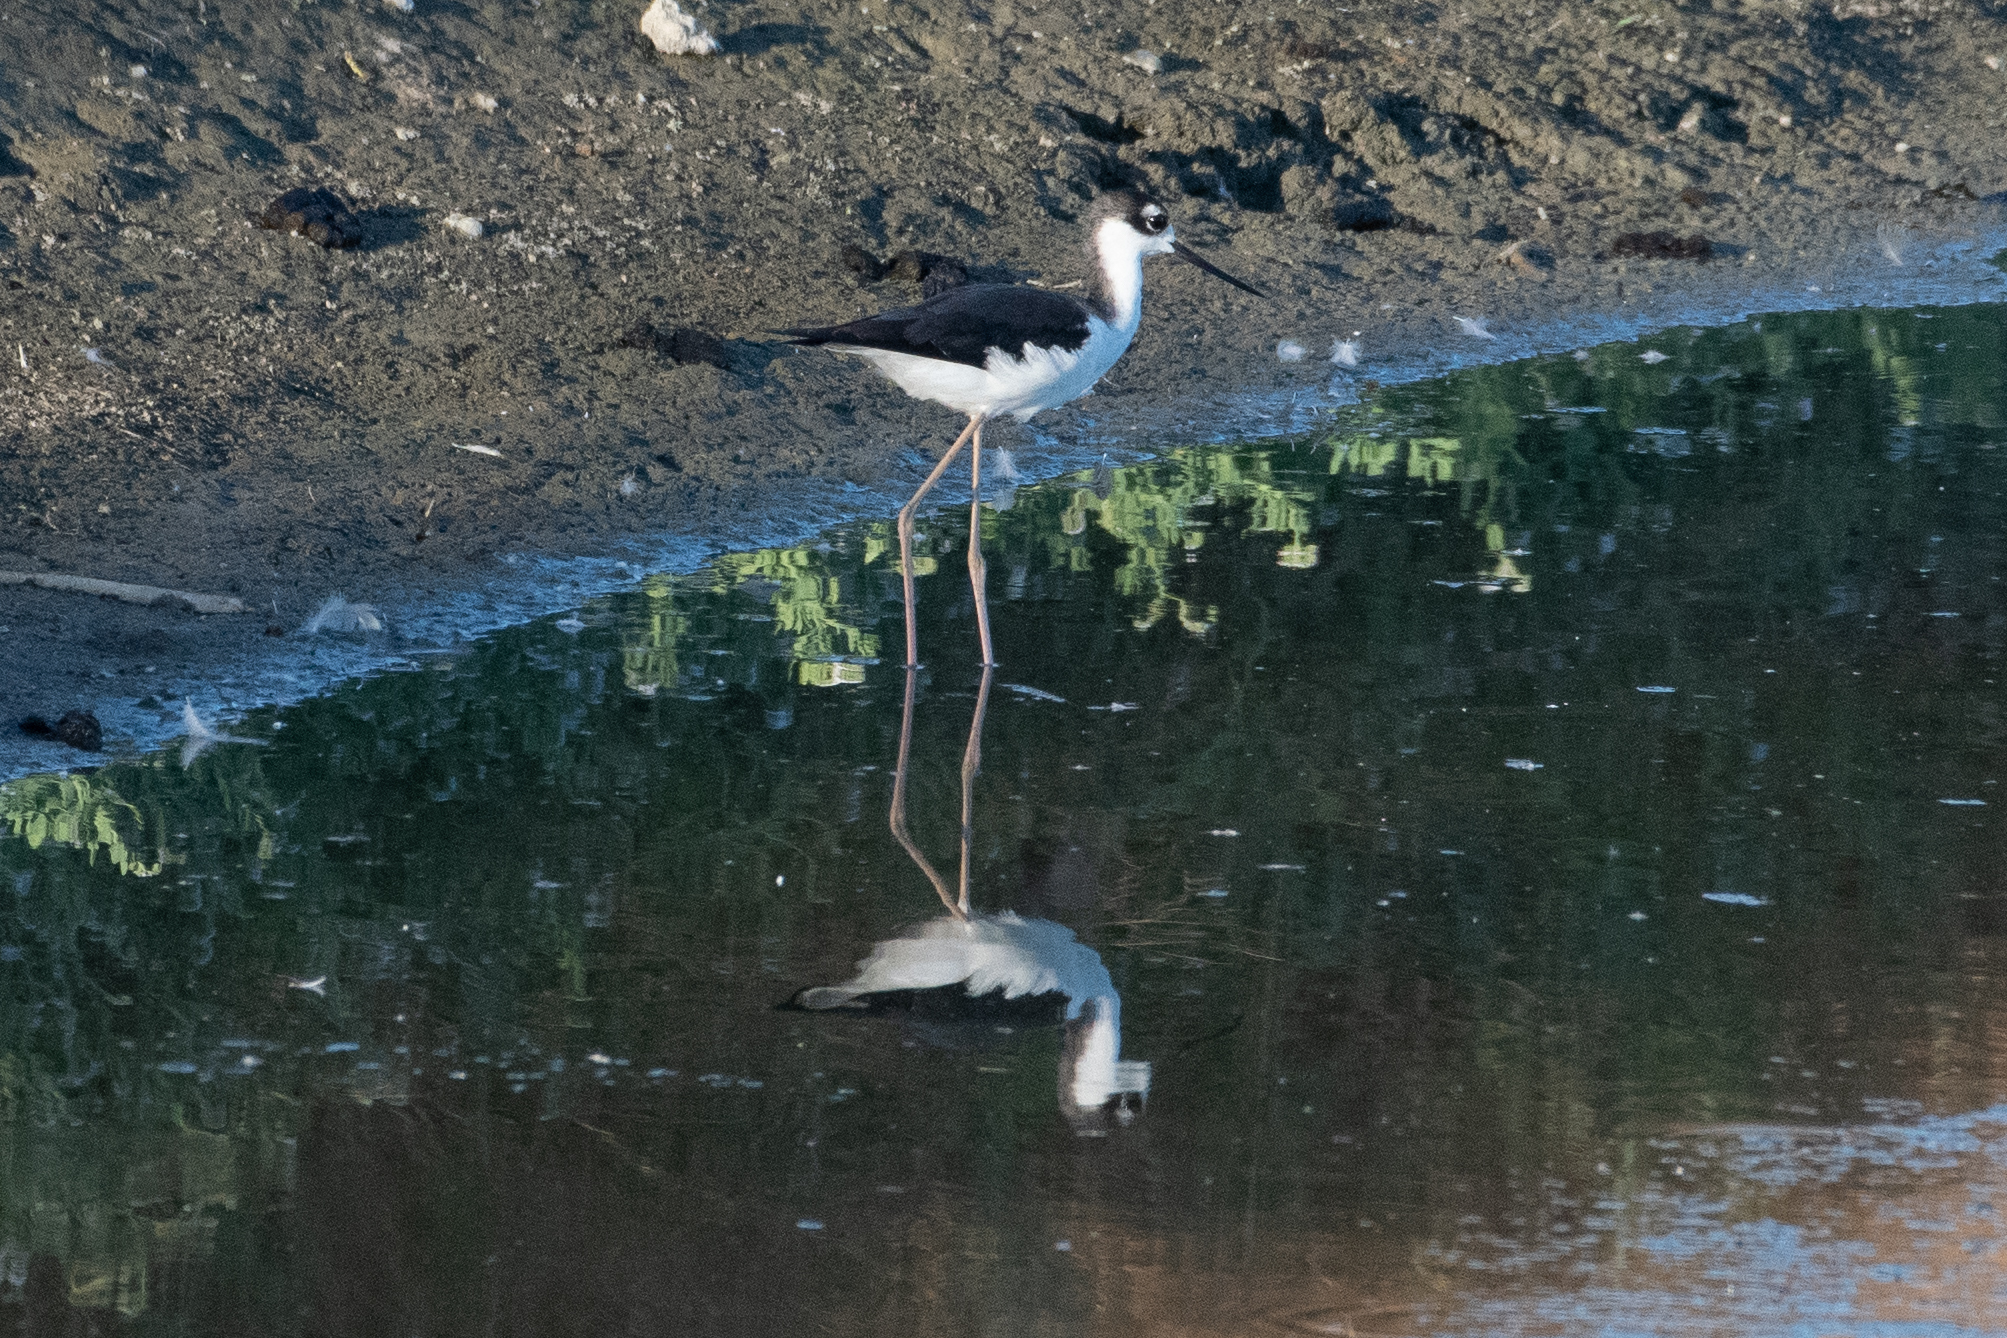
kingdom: Animalia
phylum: Chordata
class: Aves
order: Charadriiformes
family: Recurvirostridae
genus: Himantopus
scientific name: Himantopus mexicanus
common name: Black-necked stilt
